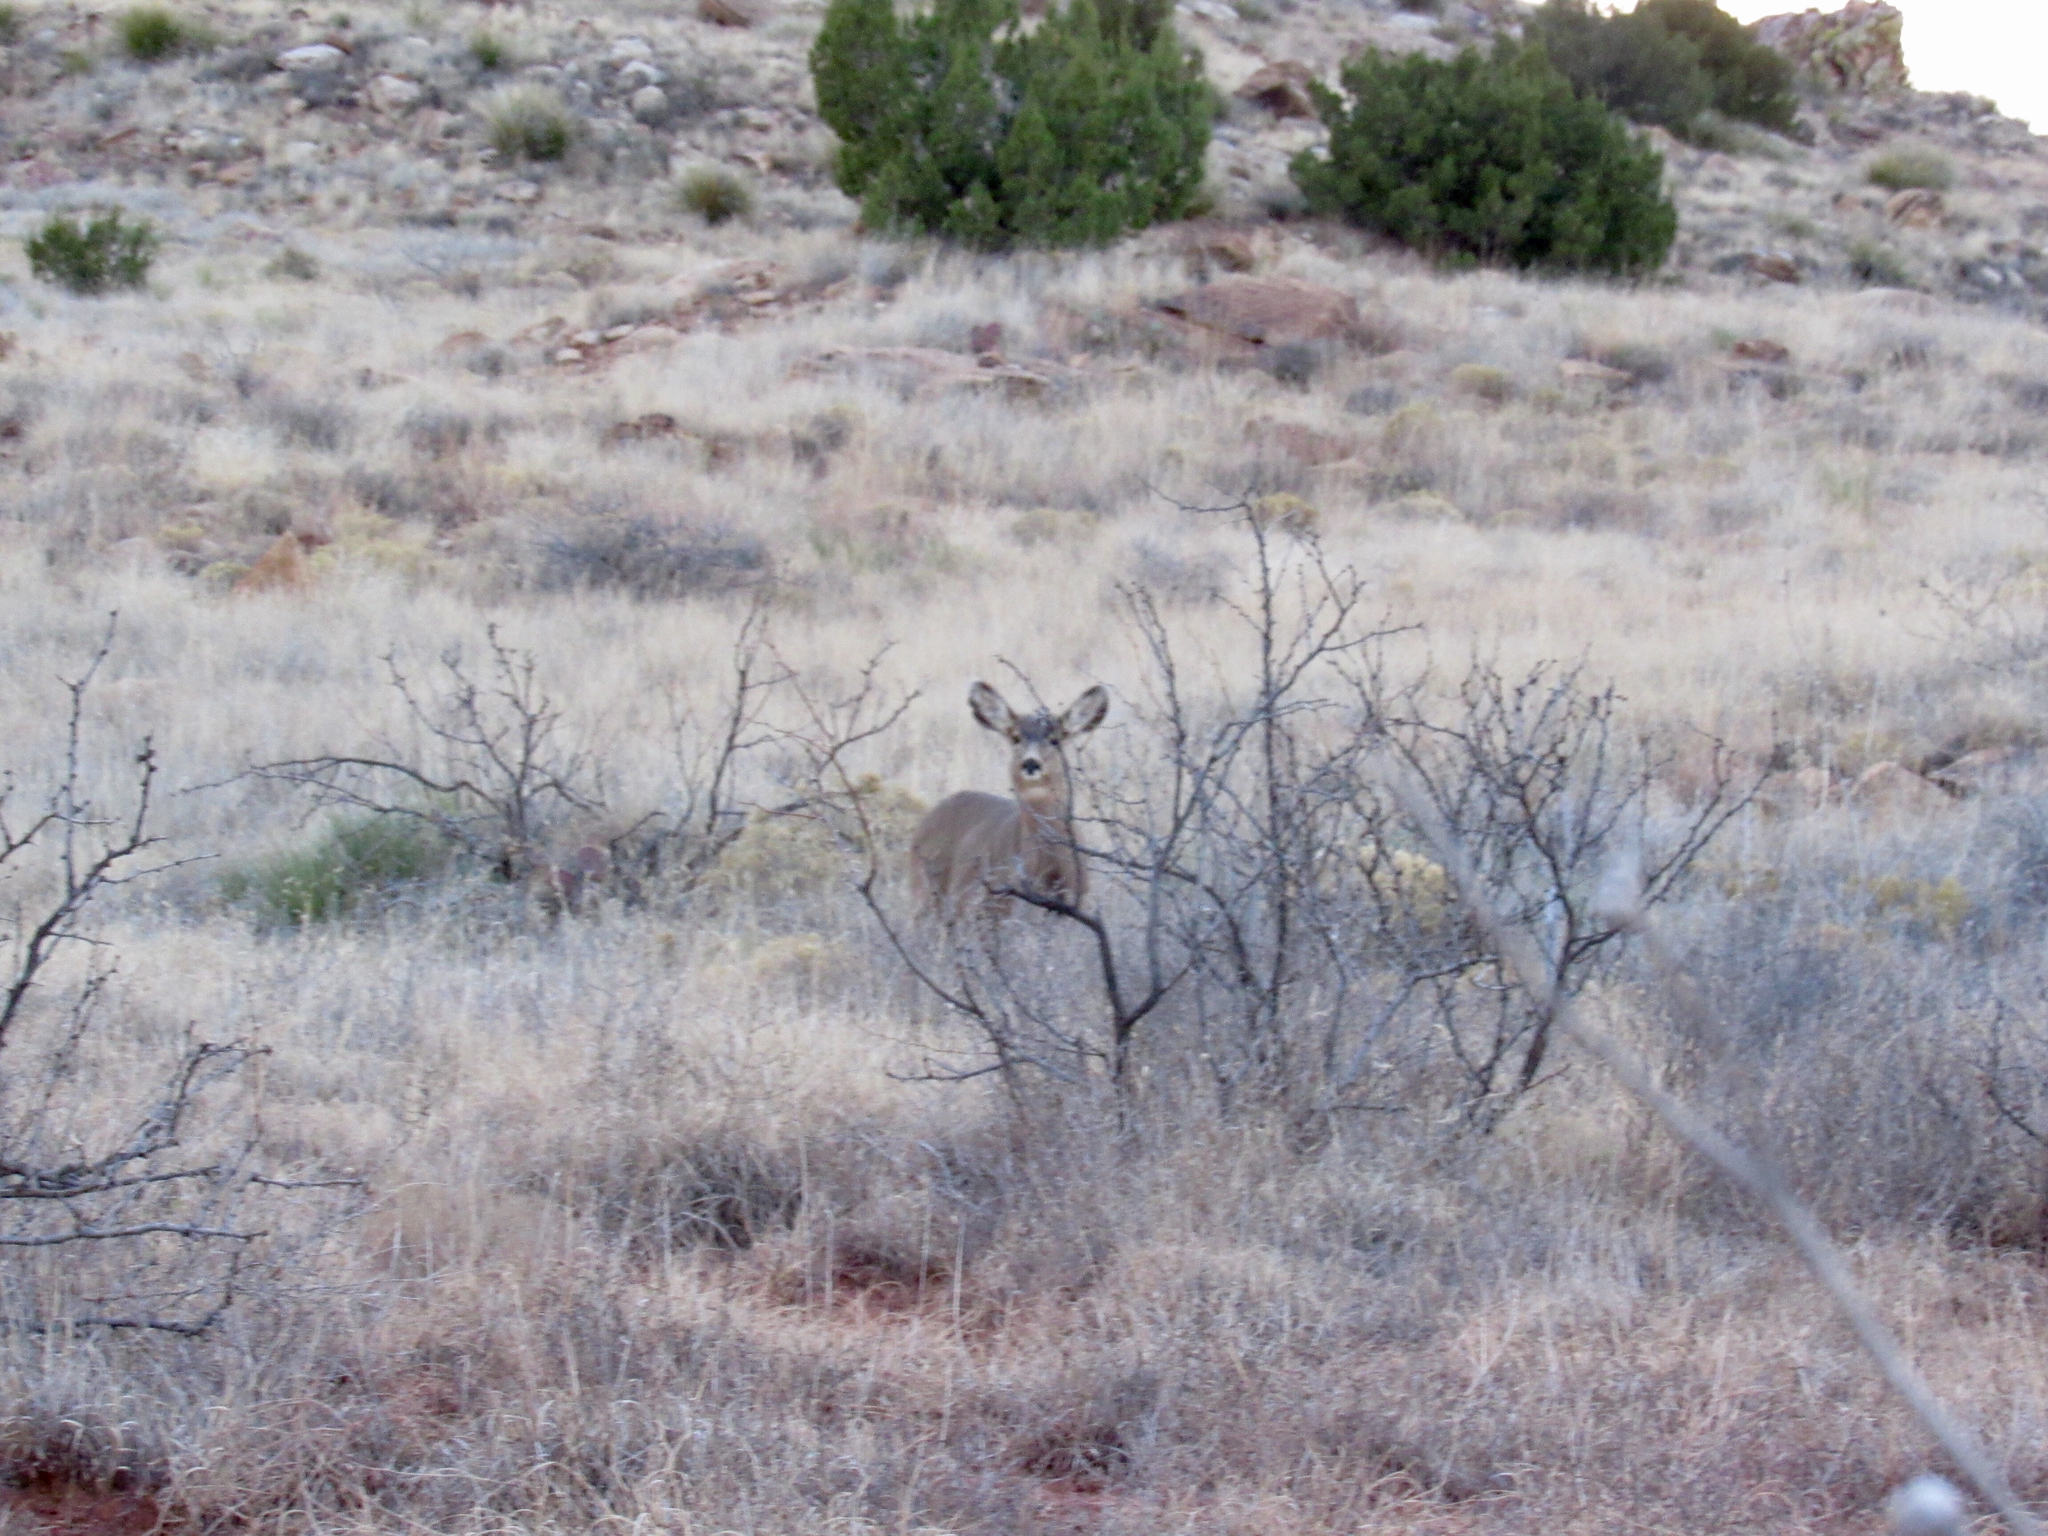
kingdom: Animalia
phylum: Chordata
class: Mammalia
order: Artiodactyla
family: Cervidae
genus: Odocoileus
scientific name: Odocoileus hemionus
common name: Mule deer
